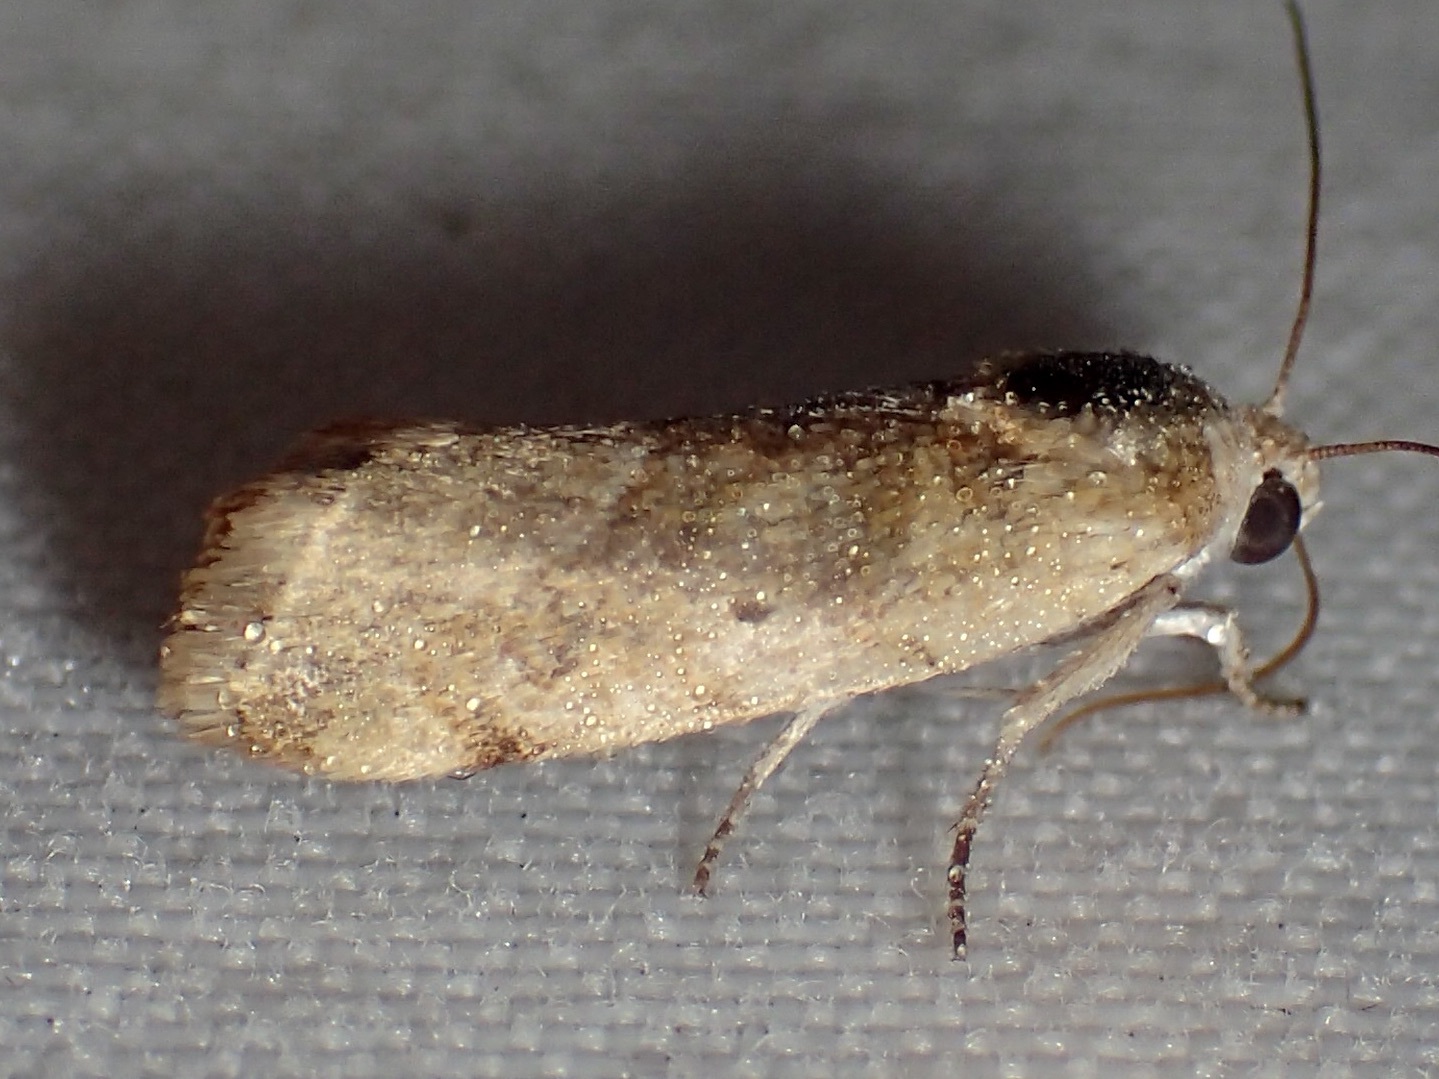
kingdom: Animalia
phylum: Arthropoda
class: Insecta
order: Lepidoptera
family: Noctuidae
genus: Acontia
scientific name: Acontia fasciatella
